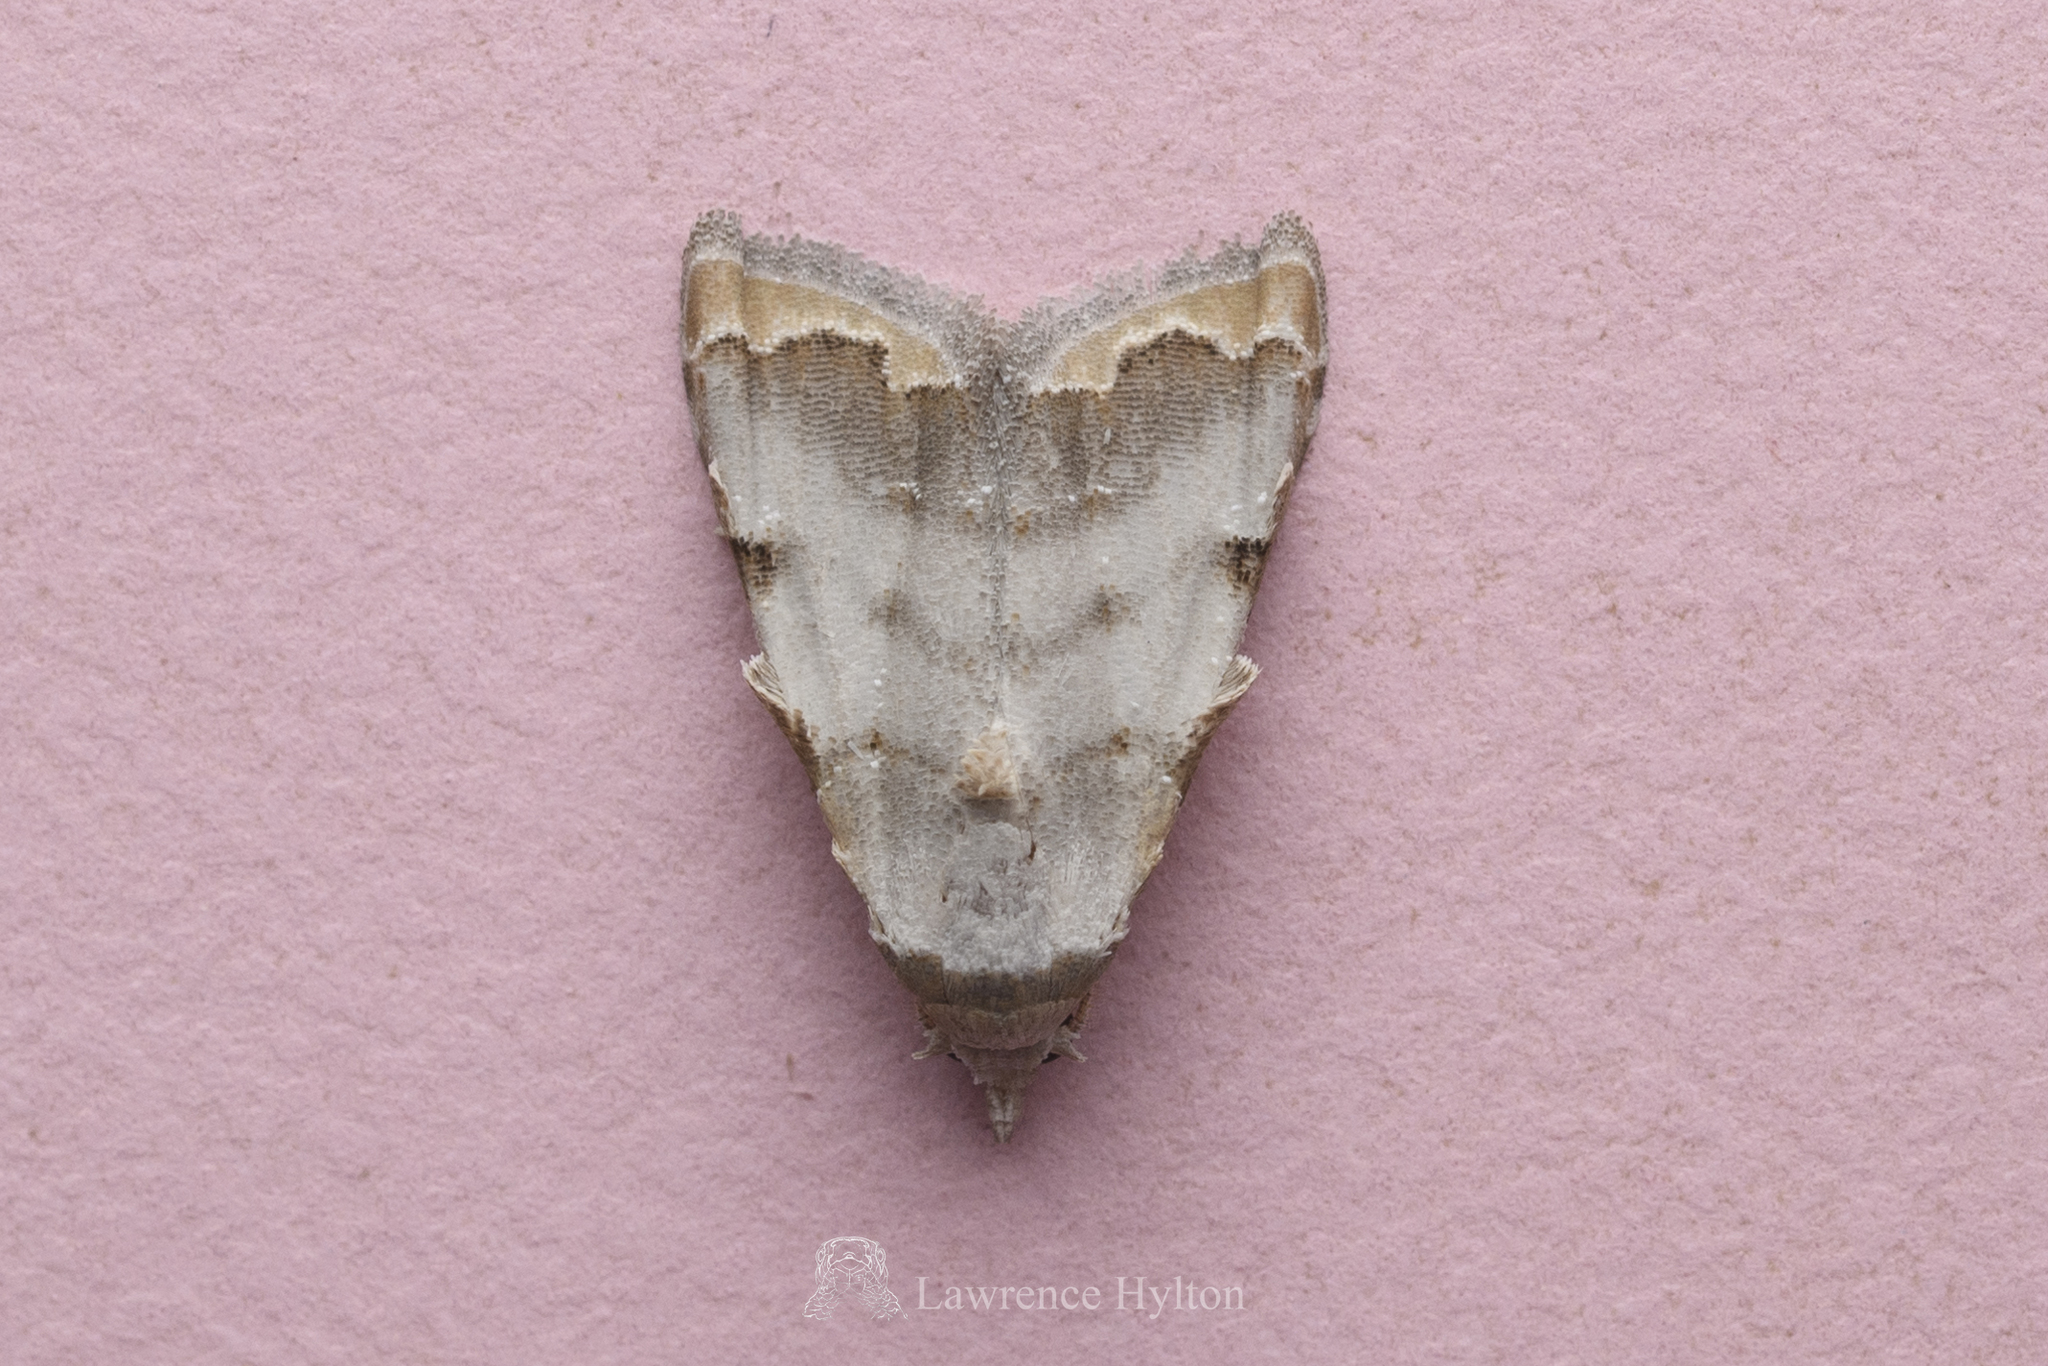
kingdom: Animalia
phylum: Arthropoda
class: Insecta
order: Lepidoptera
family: Nolidae
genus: Nola
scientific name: Nola marginata
